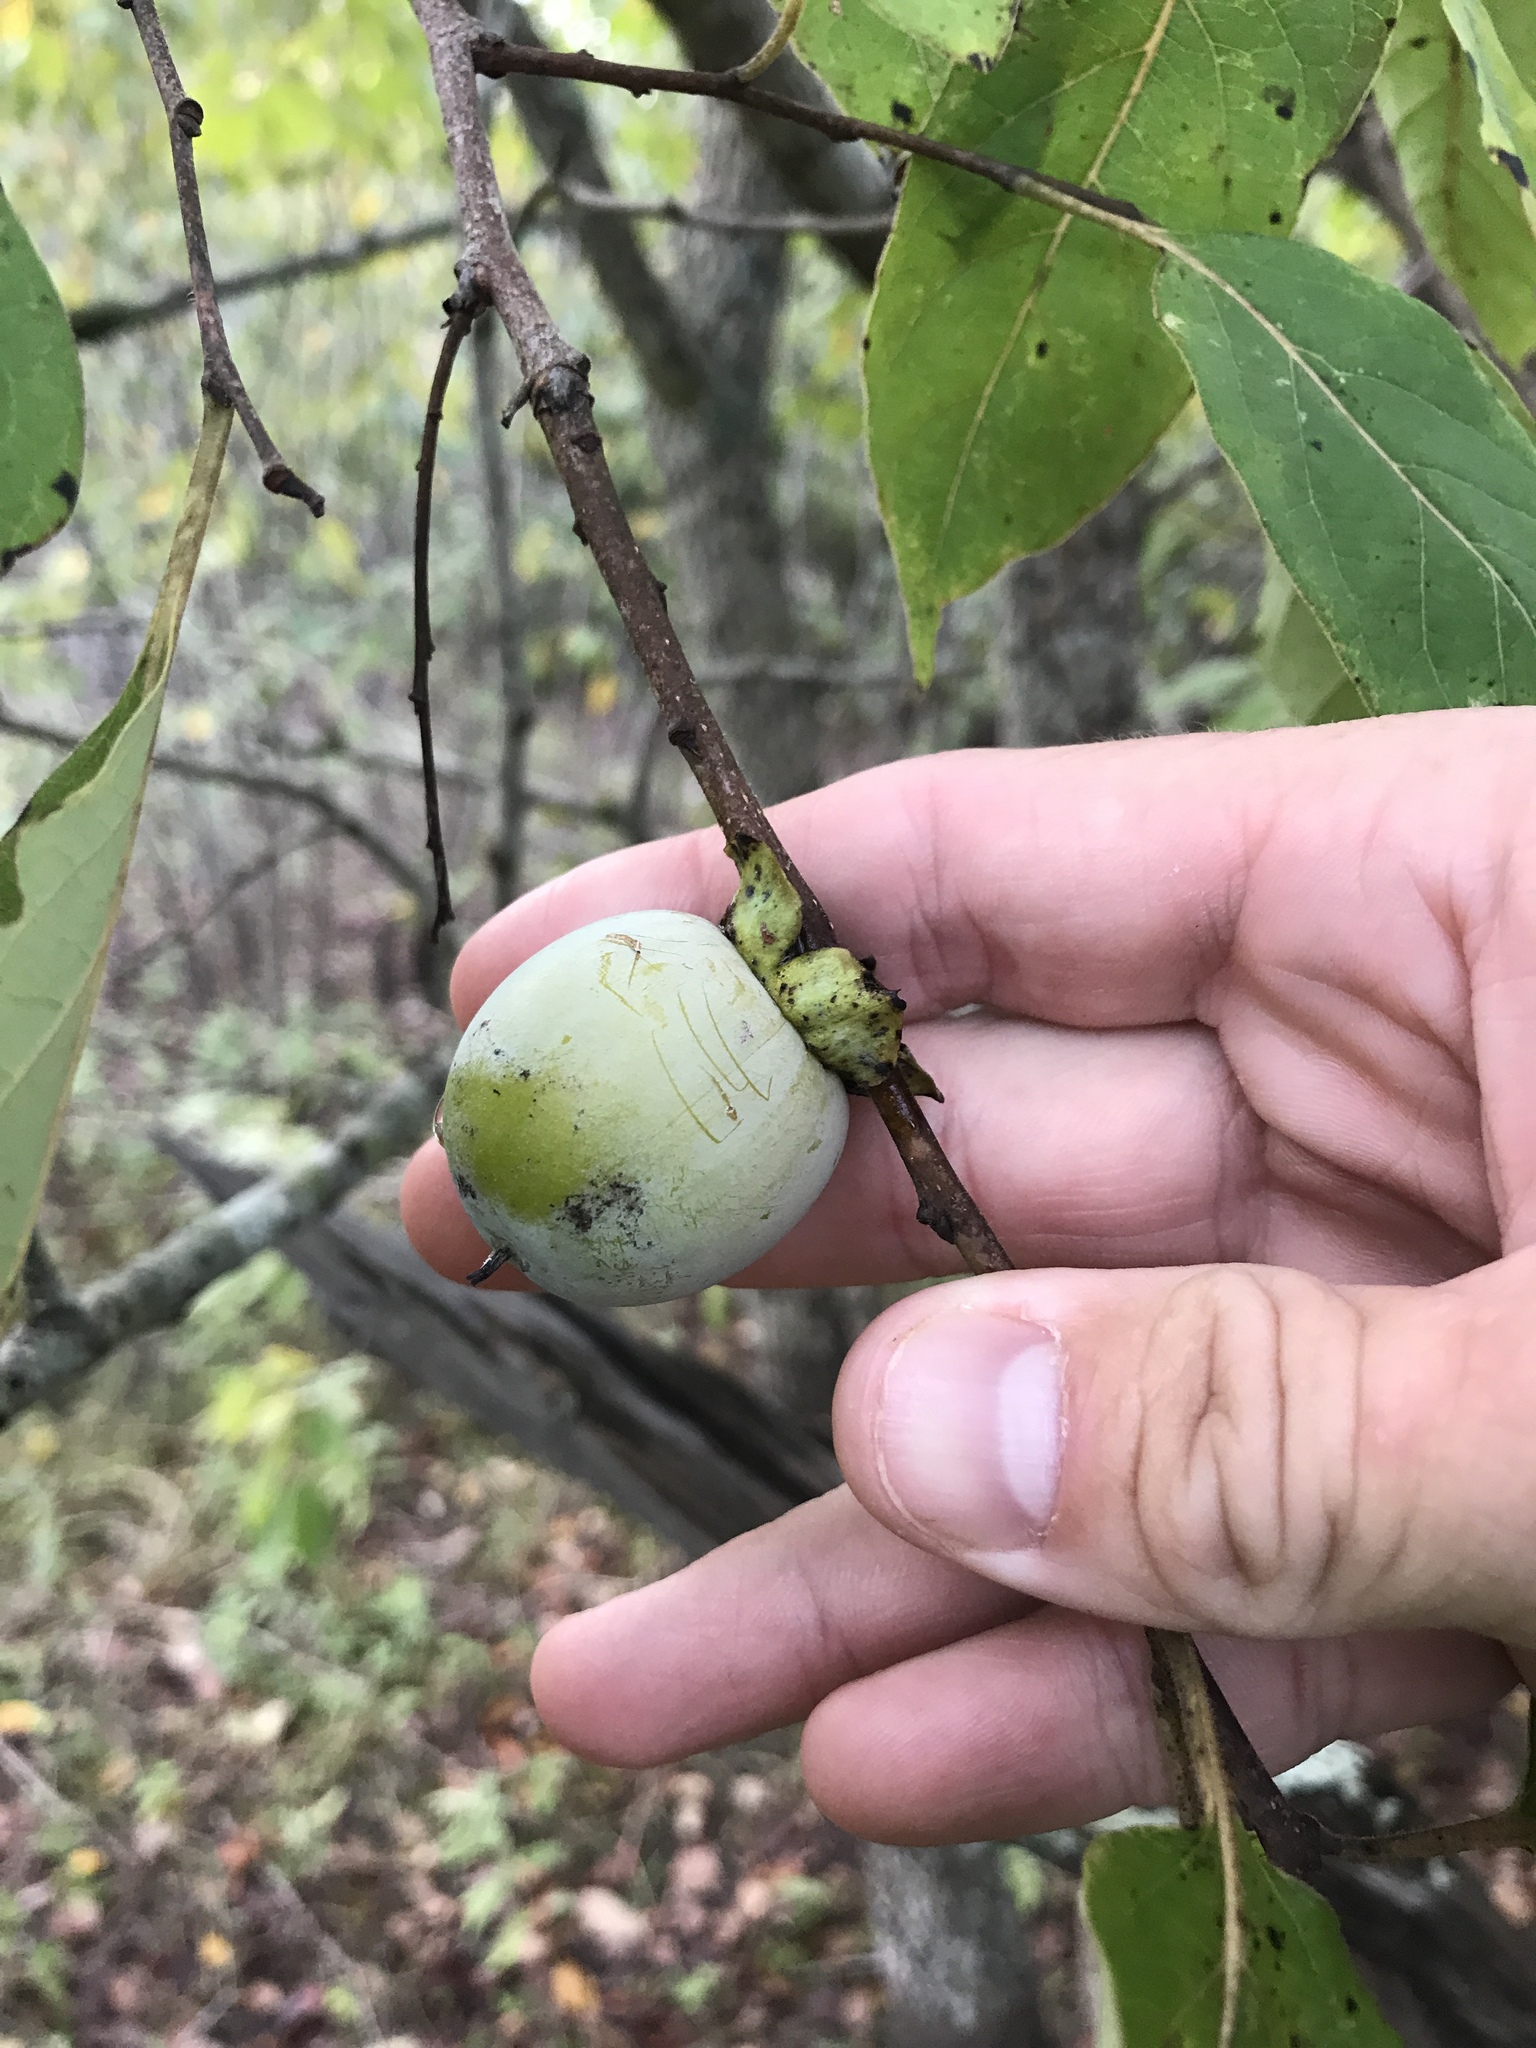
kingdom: Plantae
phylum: Tracheophyta
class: Magnoliopsida
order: Ericales
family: Ebenaceae
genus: Diospyros
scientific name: Diospyros virginiana
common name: Persimmon
